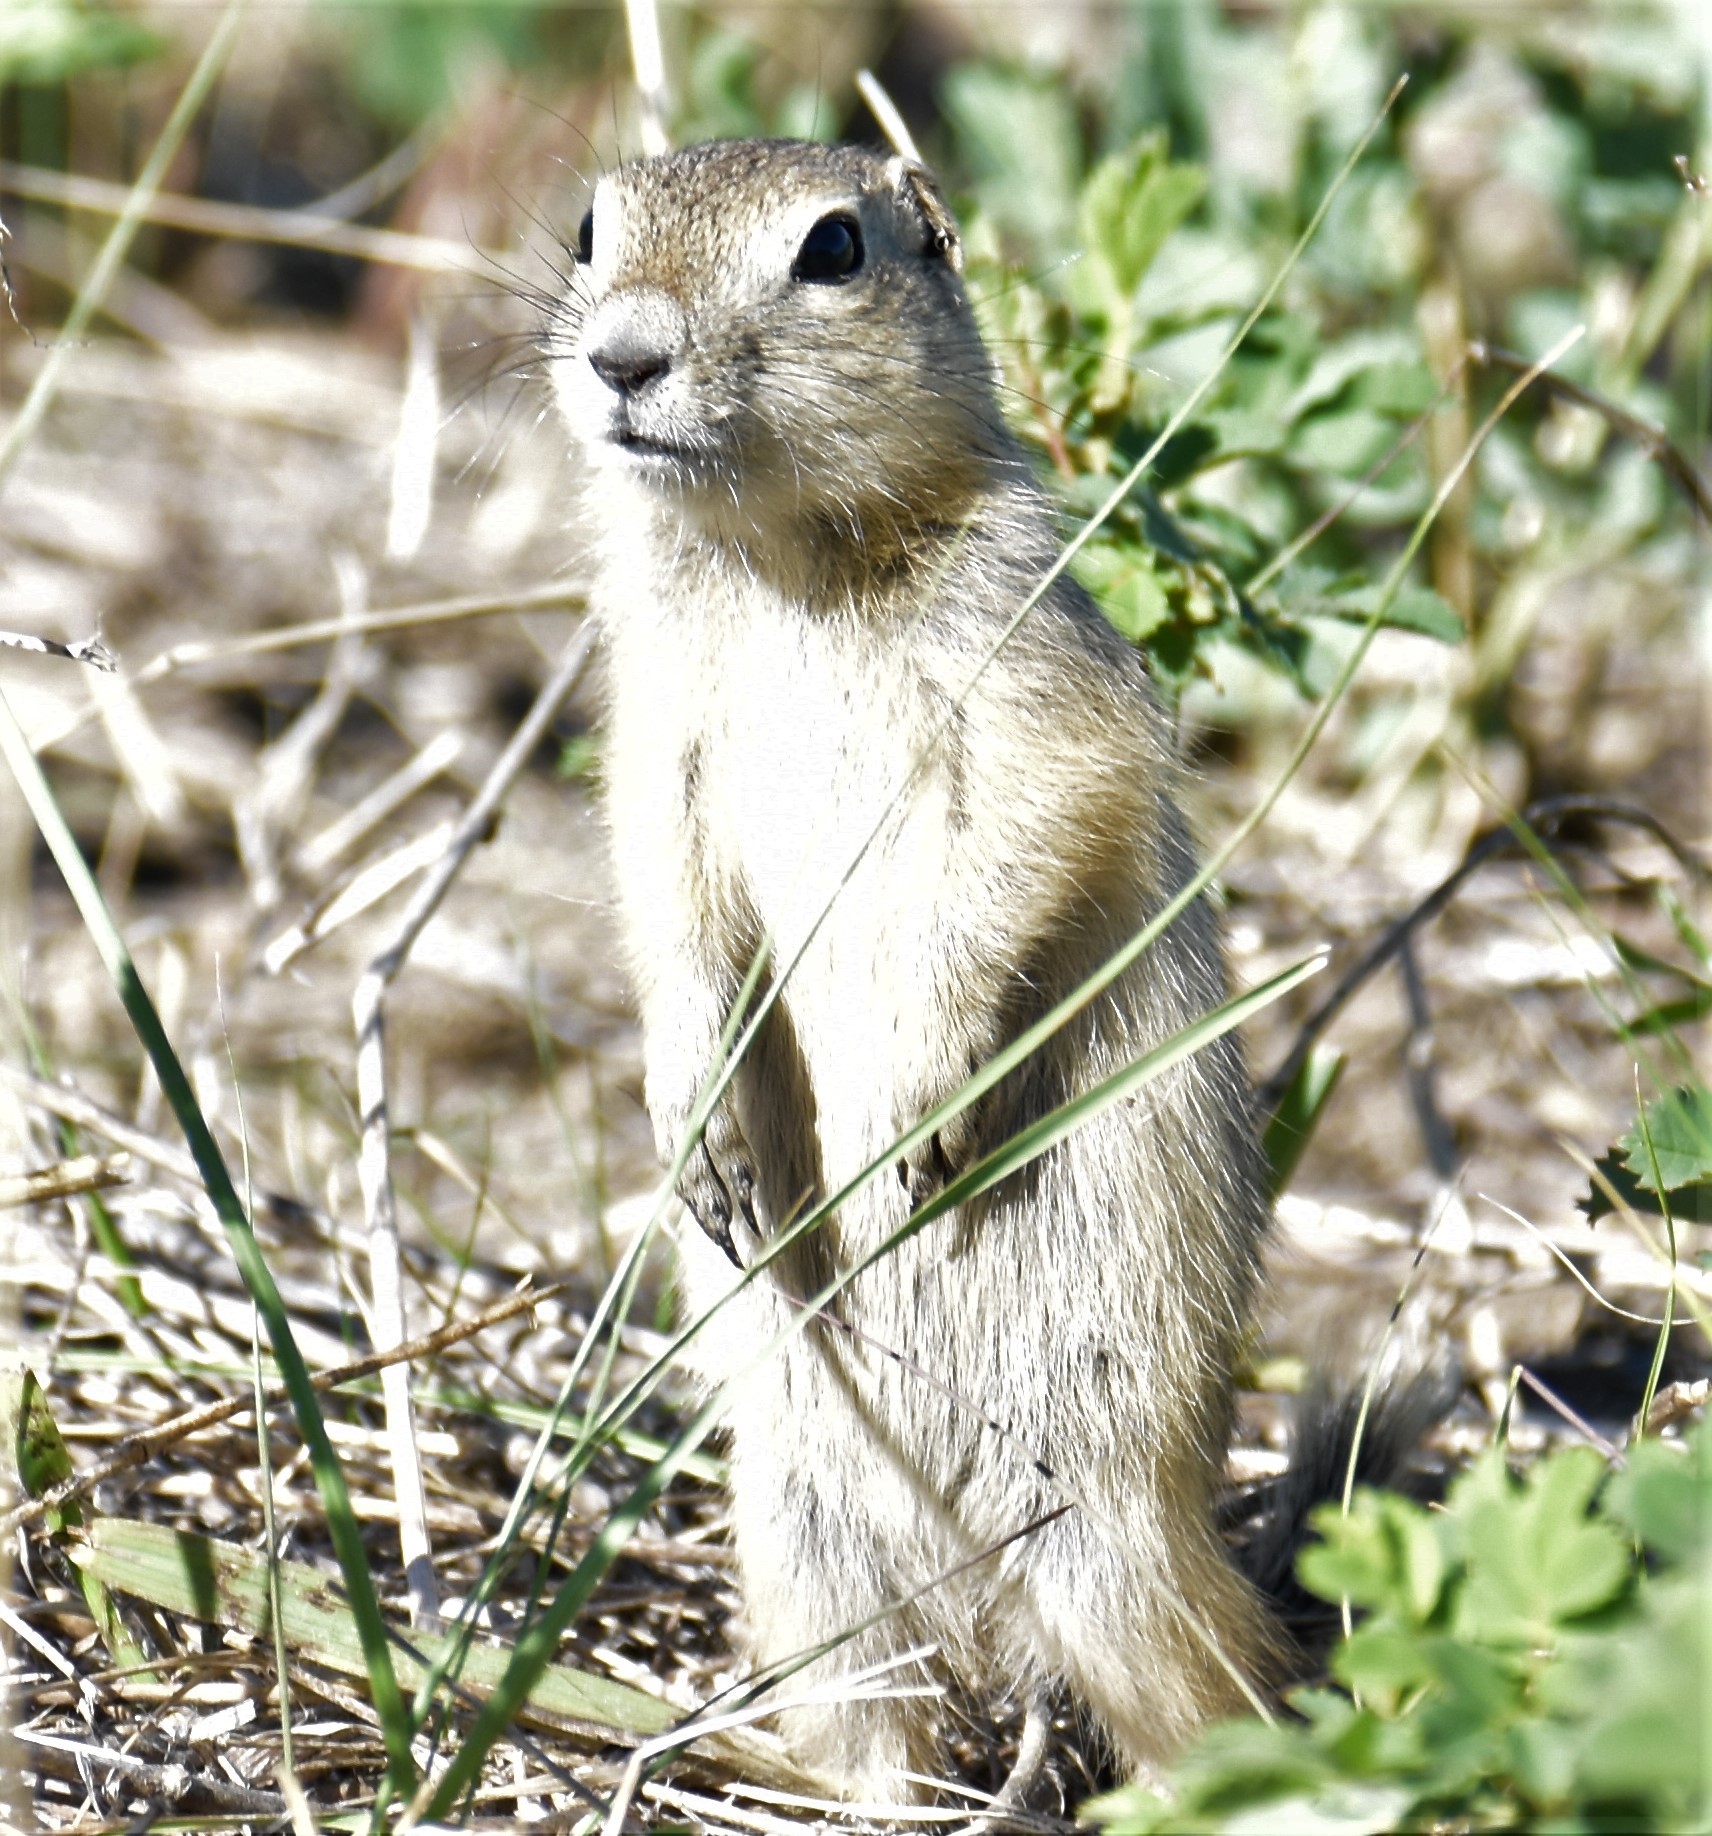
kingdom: Animalia
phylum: Chordata
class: Mammalia
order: Rodentia
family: Sciuridae
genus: Urocitellus
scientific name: Urocitellus richardsonii
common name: Richardson's ground squirrel
